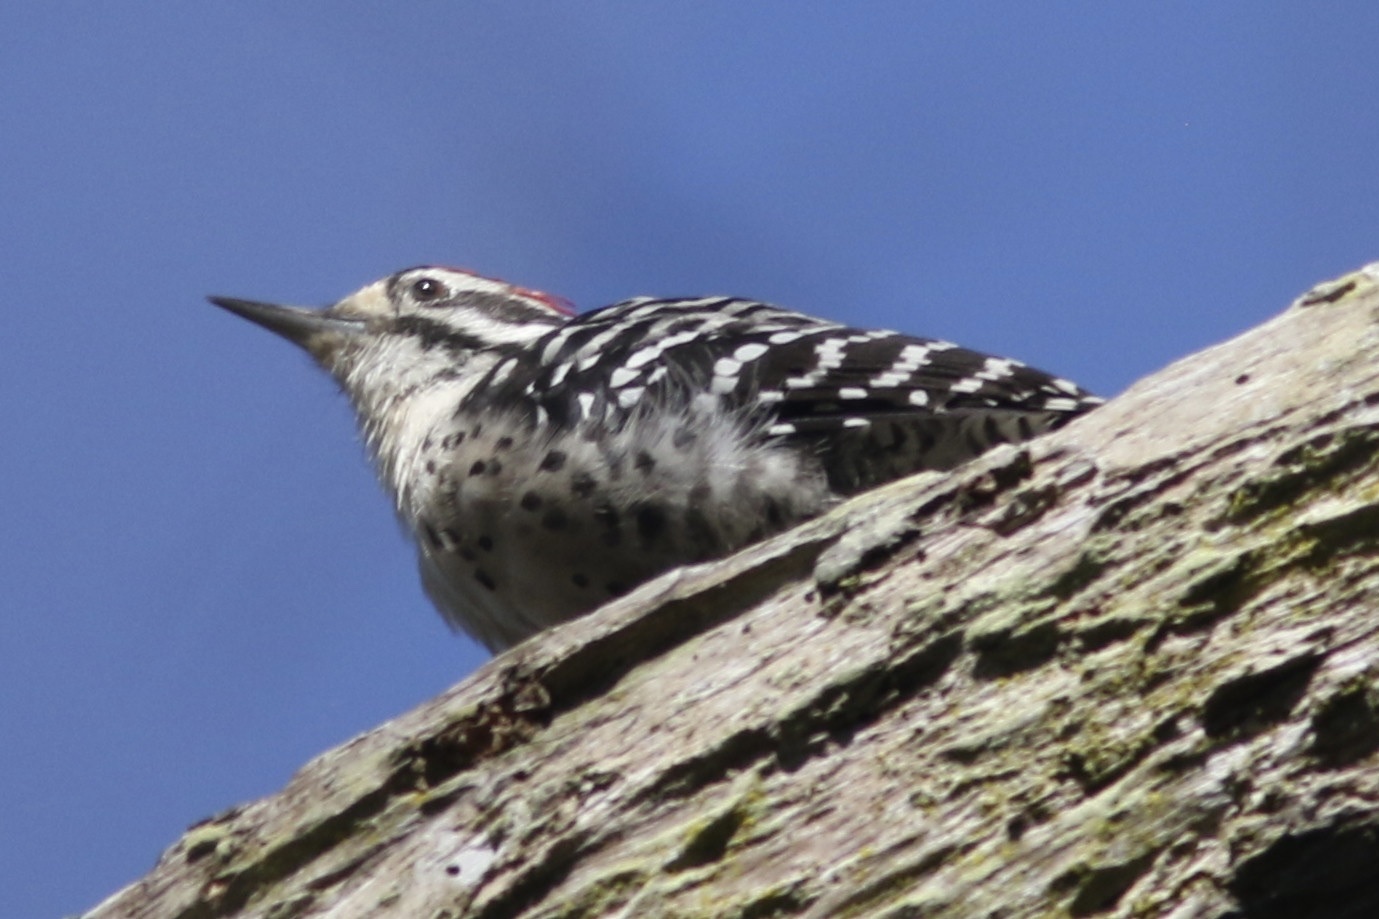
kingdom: Animalia
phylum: Chordata
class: Aves
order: Piciformes
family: Picidae
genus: Dryobates
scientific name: Dryobates nuttallii
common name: Nuttall's woodpecker
